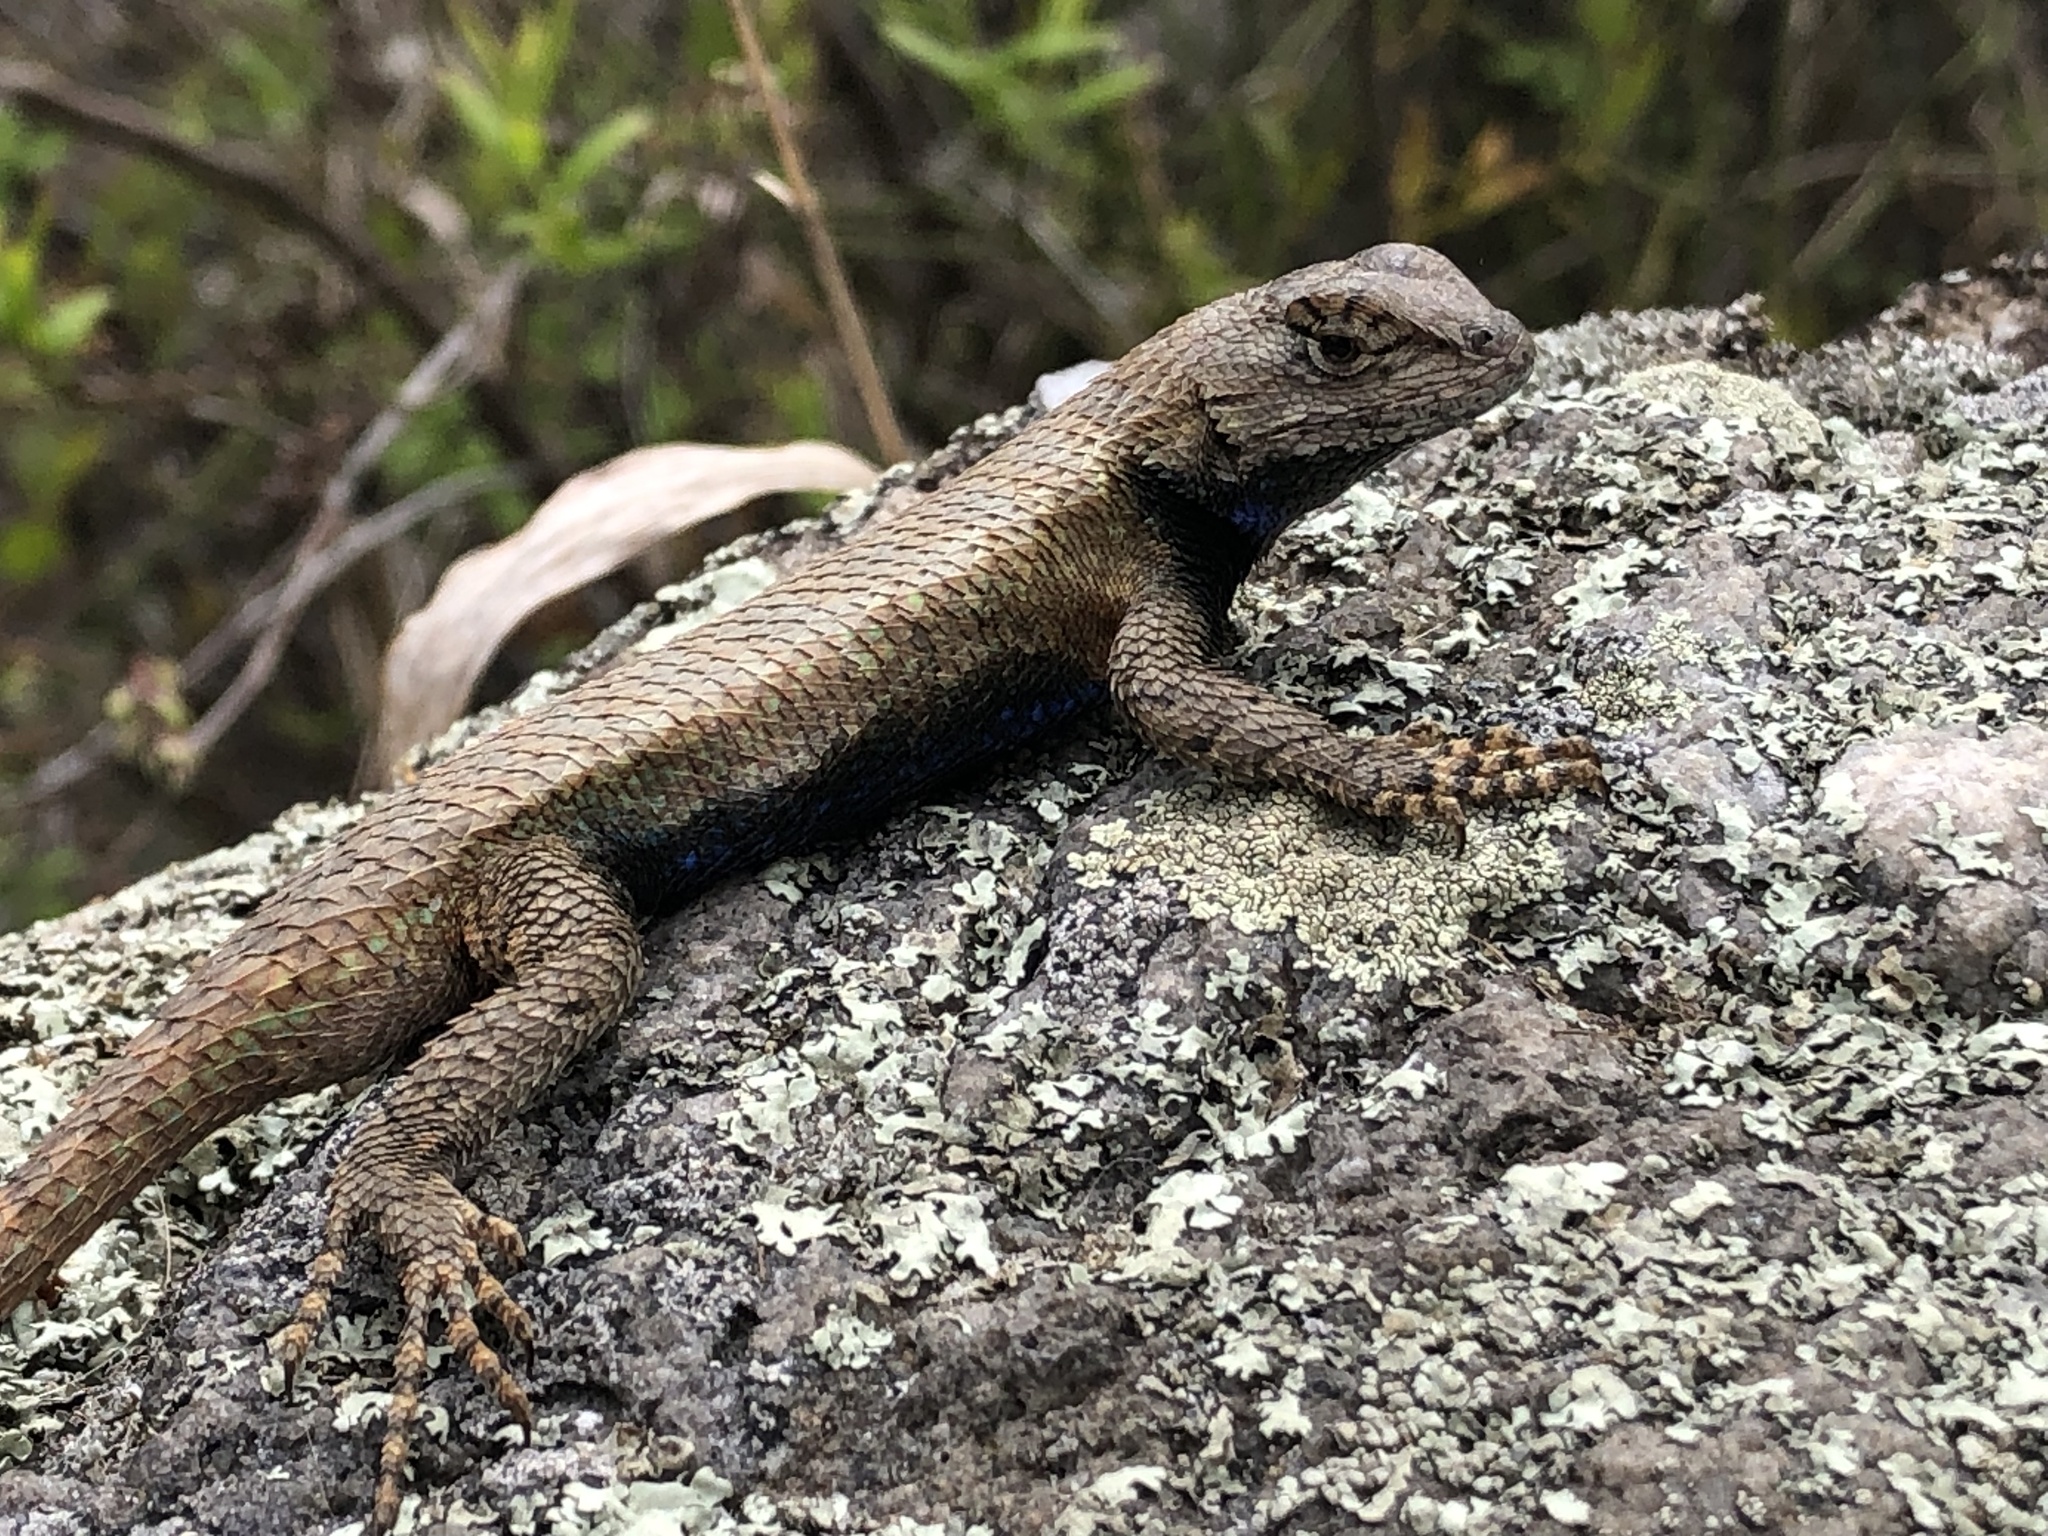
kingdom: Animalia
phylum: Chordata
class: Squamata
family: Phrynosomatidae
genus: Sceloporus
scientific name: Sceloporus undulatus
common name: Eastern fence lizard
